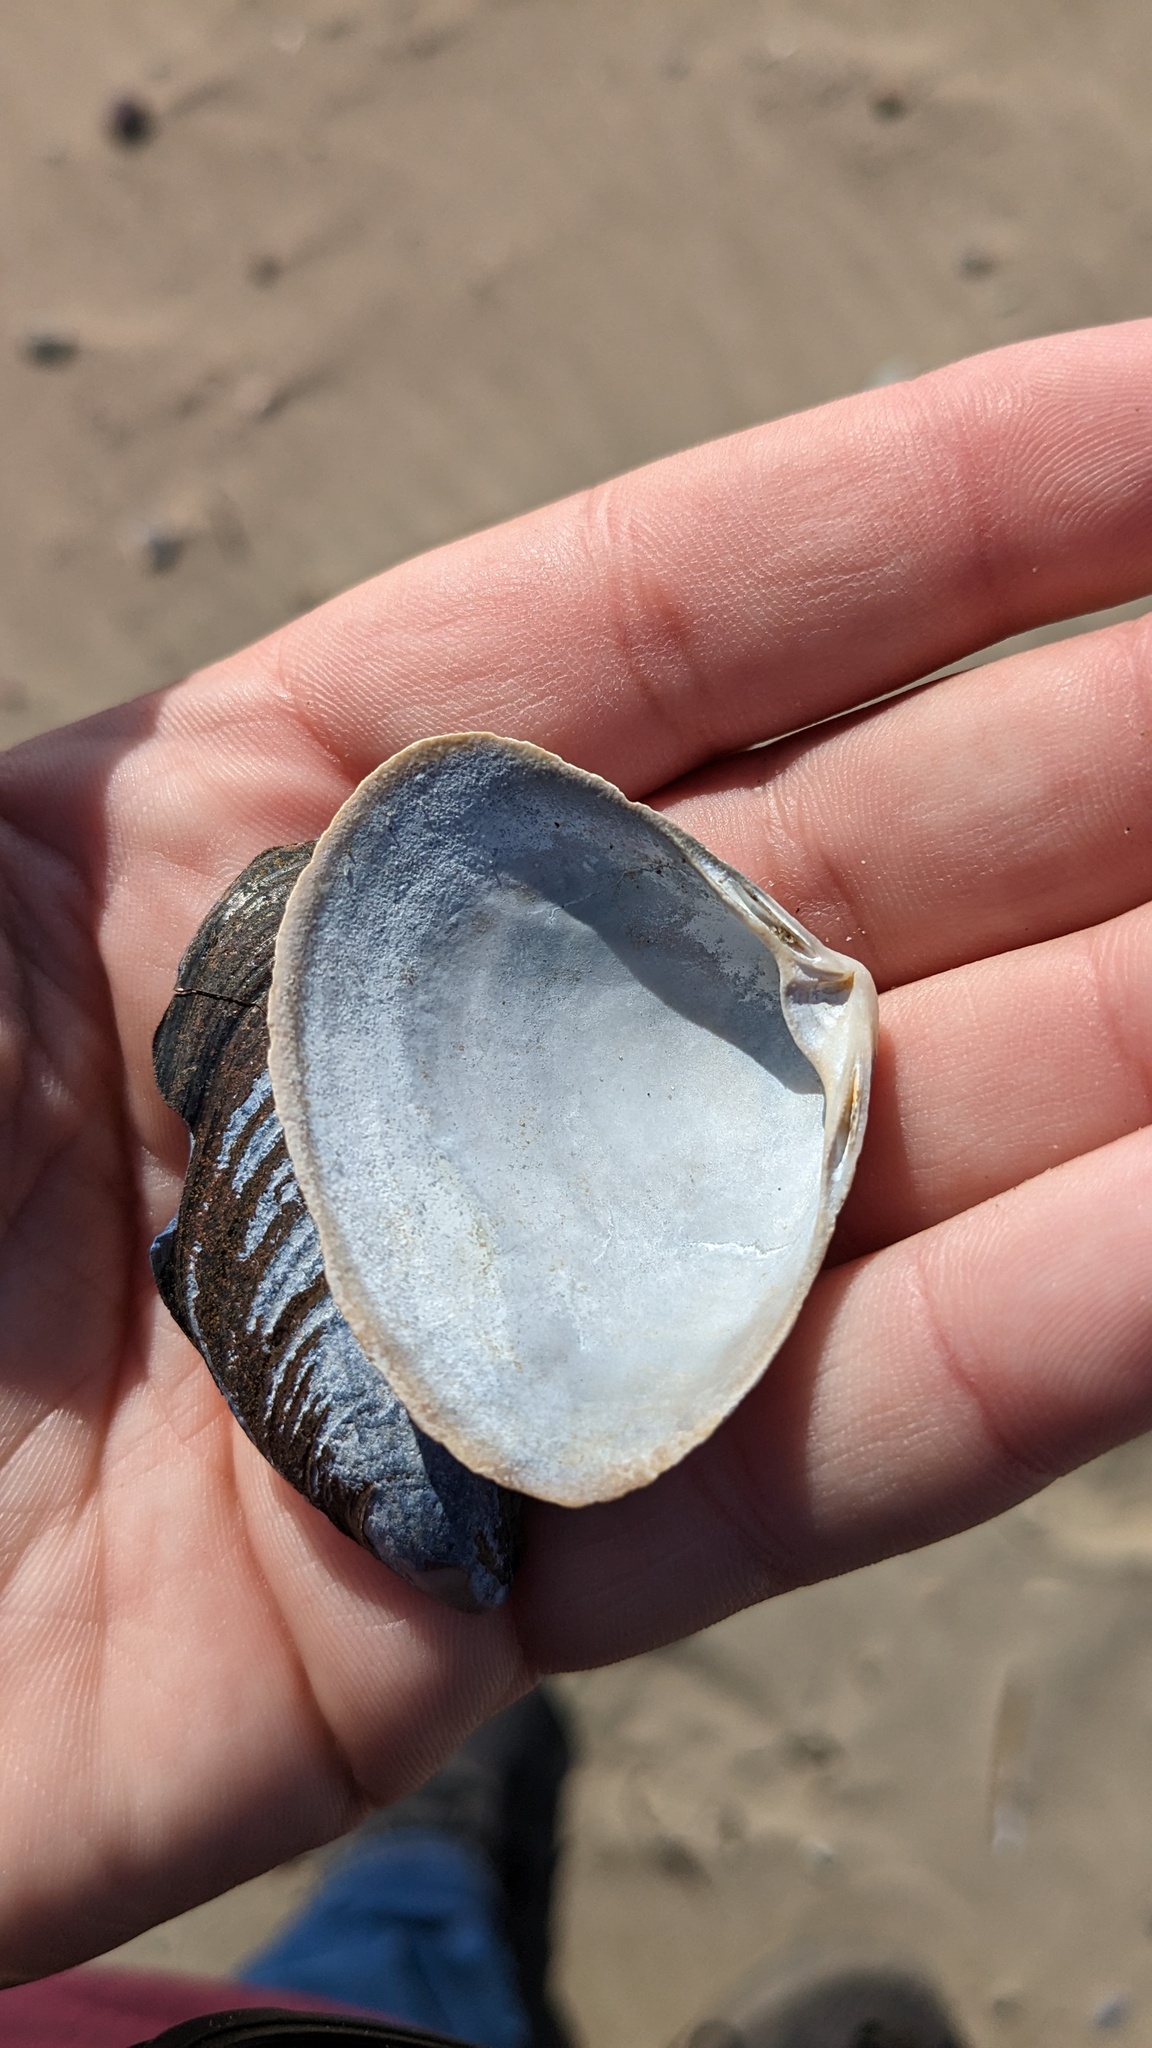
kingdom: Animalia
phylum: Mollusca
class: Bivalvia
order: Venerida
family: Mactridae
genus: Spisula
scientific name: Spisula solidissima
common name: Atlantic surf clam
